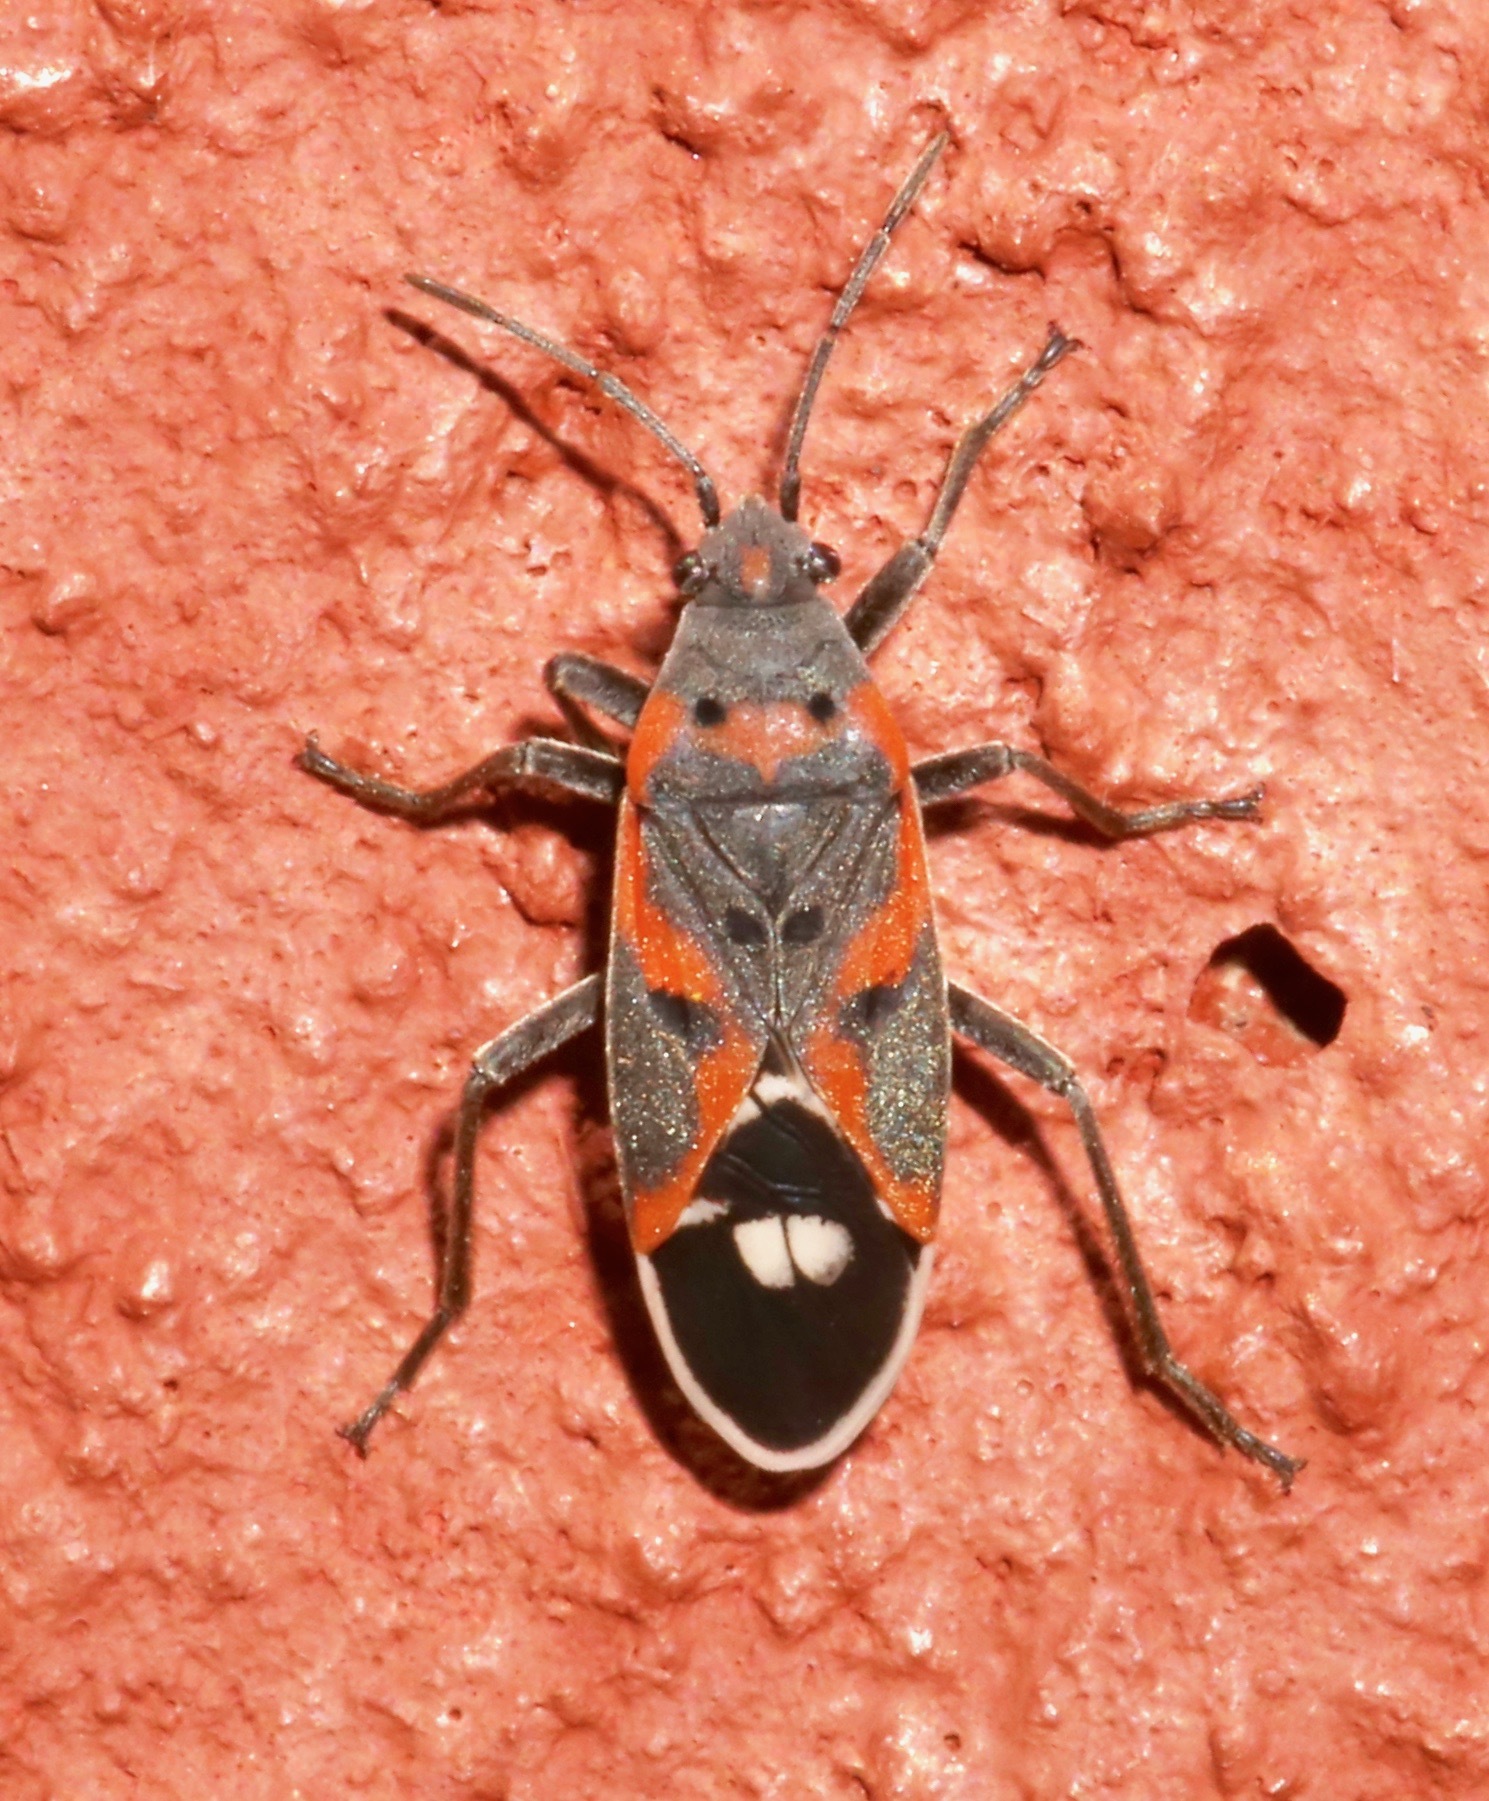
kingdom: Animalia
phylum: Arthropoda
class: Insecta
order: Hemiptera
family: Lygaeidae
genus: Lygaeus
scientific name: Lygaeus kalmii
